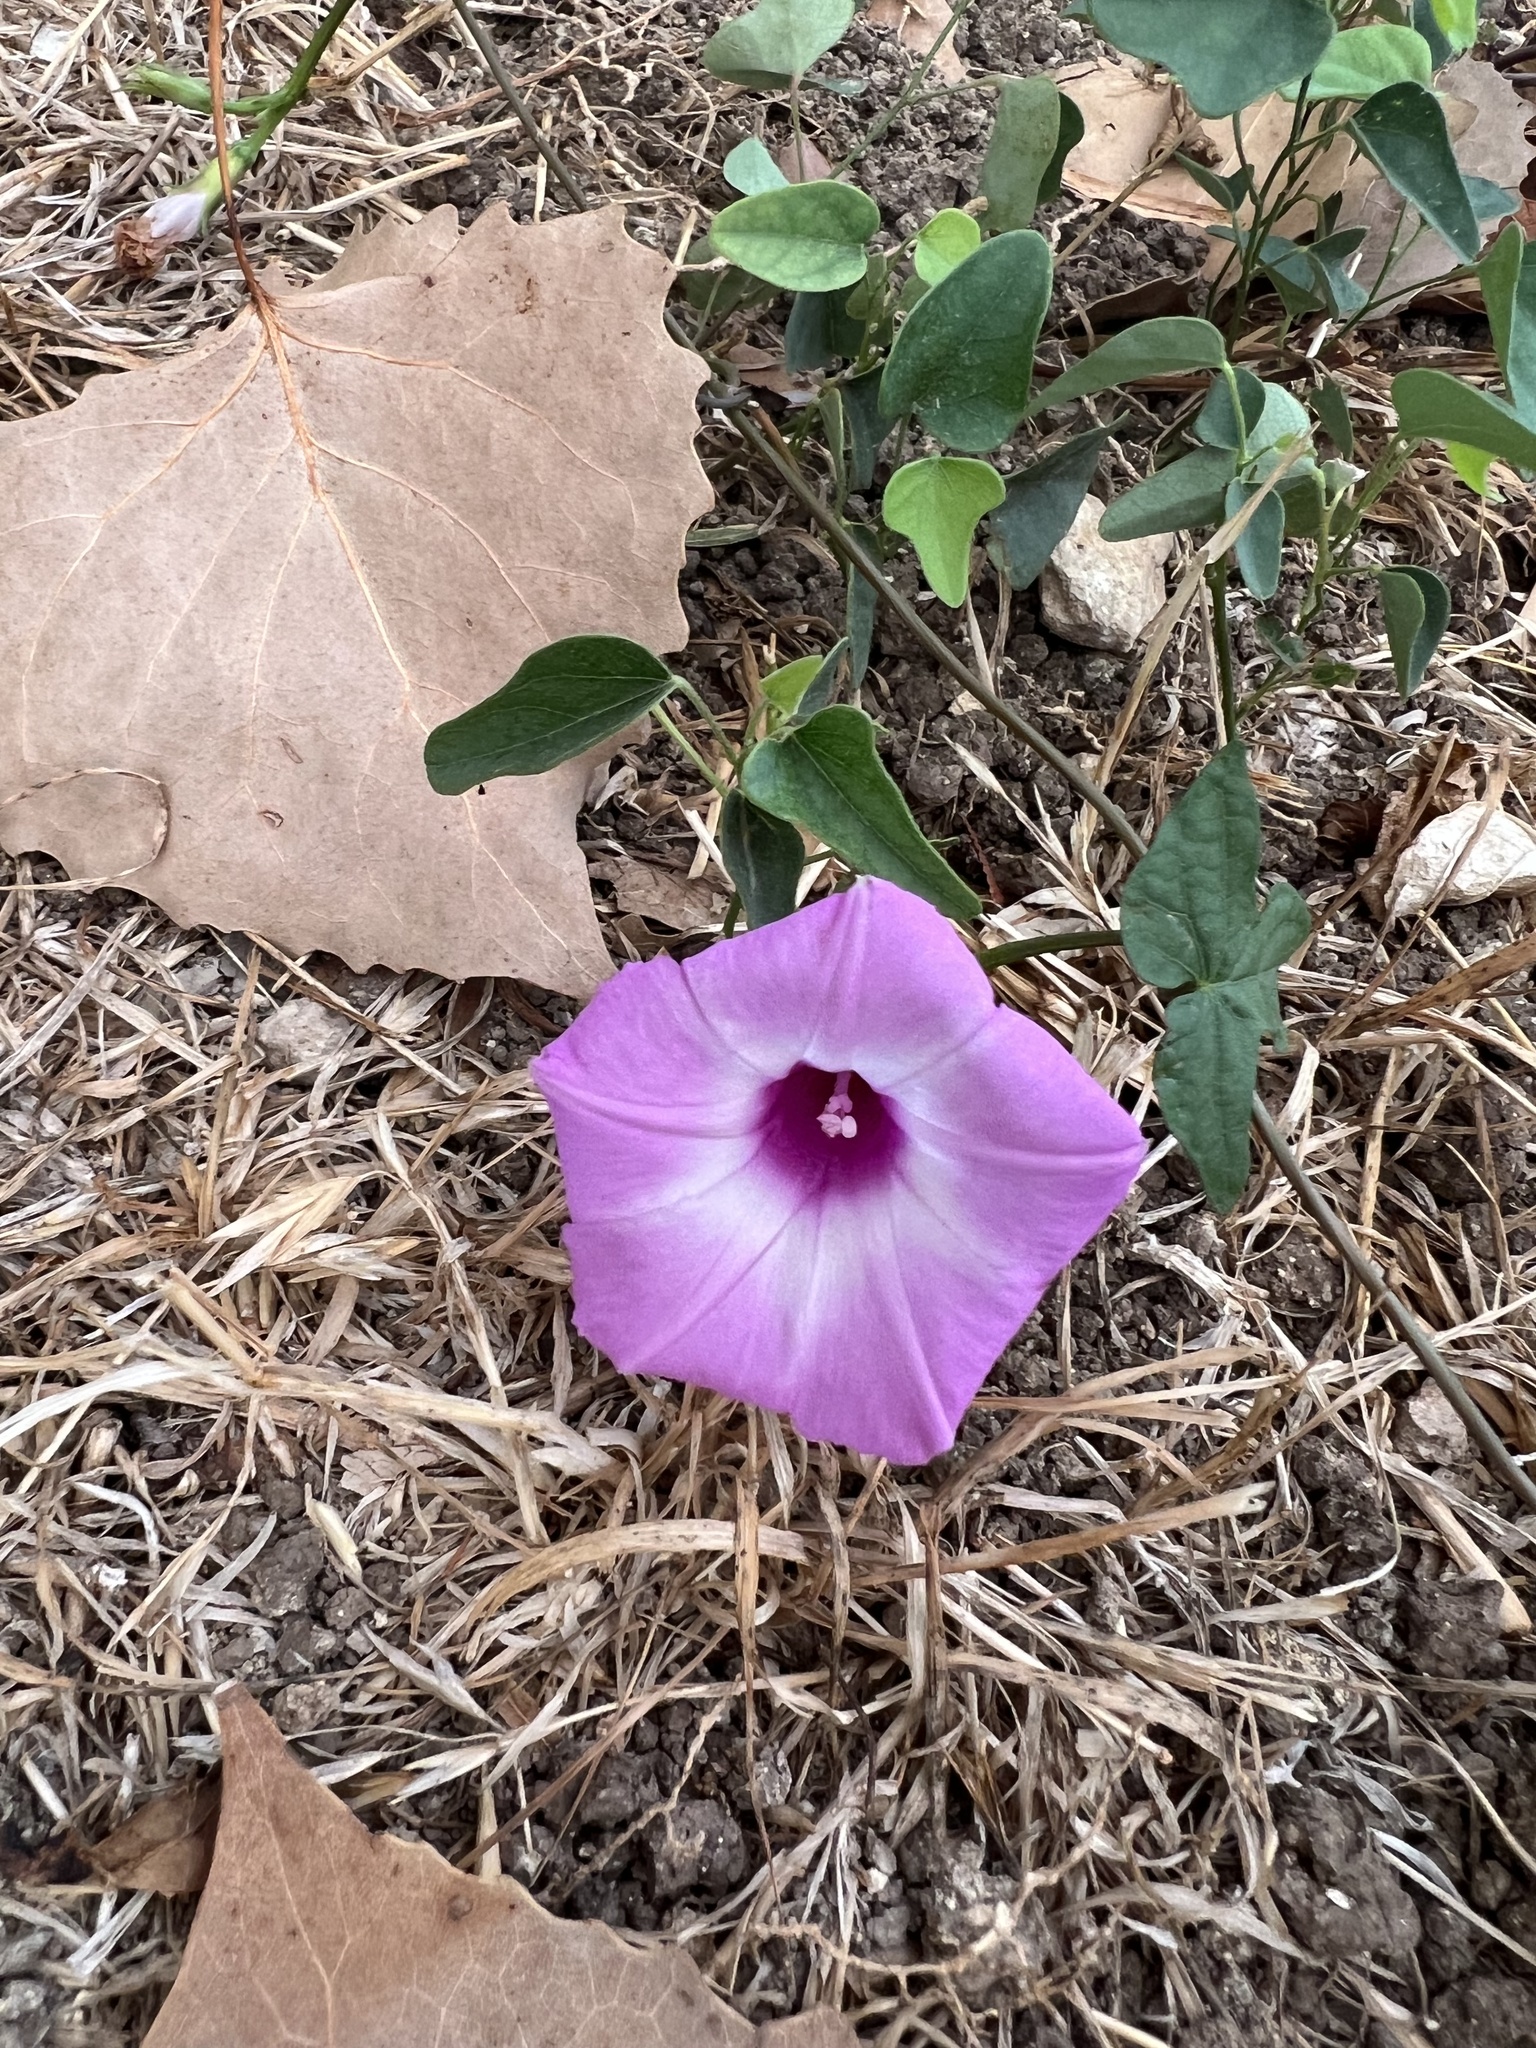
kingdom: Plantae
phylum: Tracheophyta
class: Magnoliopsida
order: Solanales
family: Convolvulaceae
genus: Ipomoea
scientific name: Ipomoea cordatotriloba
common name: Cotton morning glory
